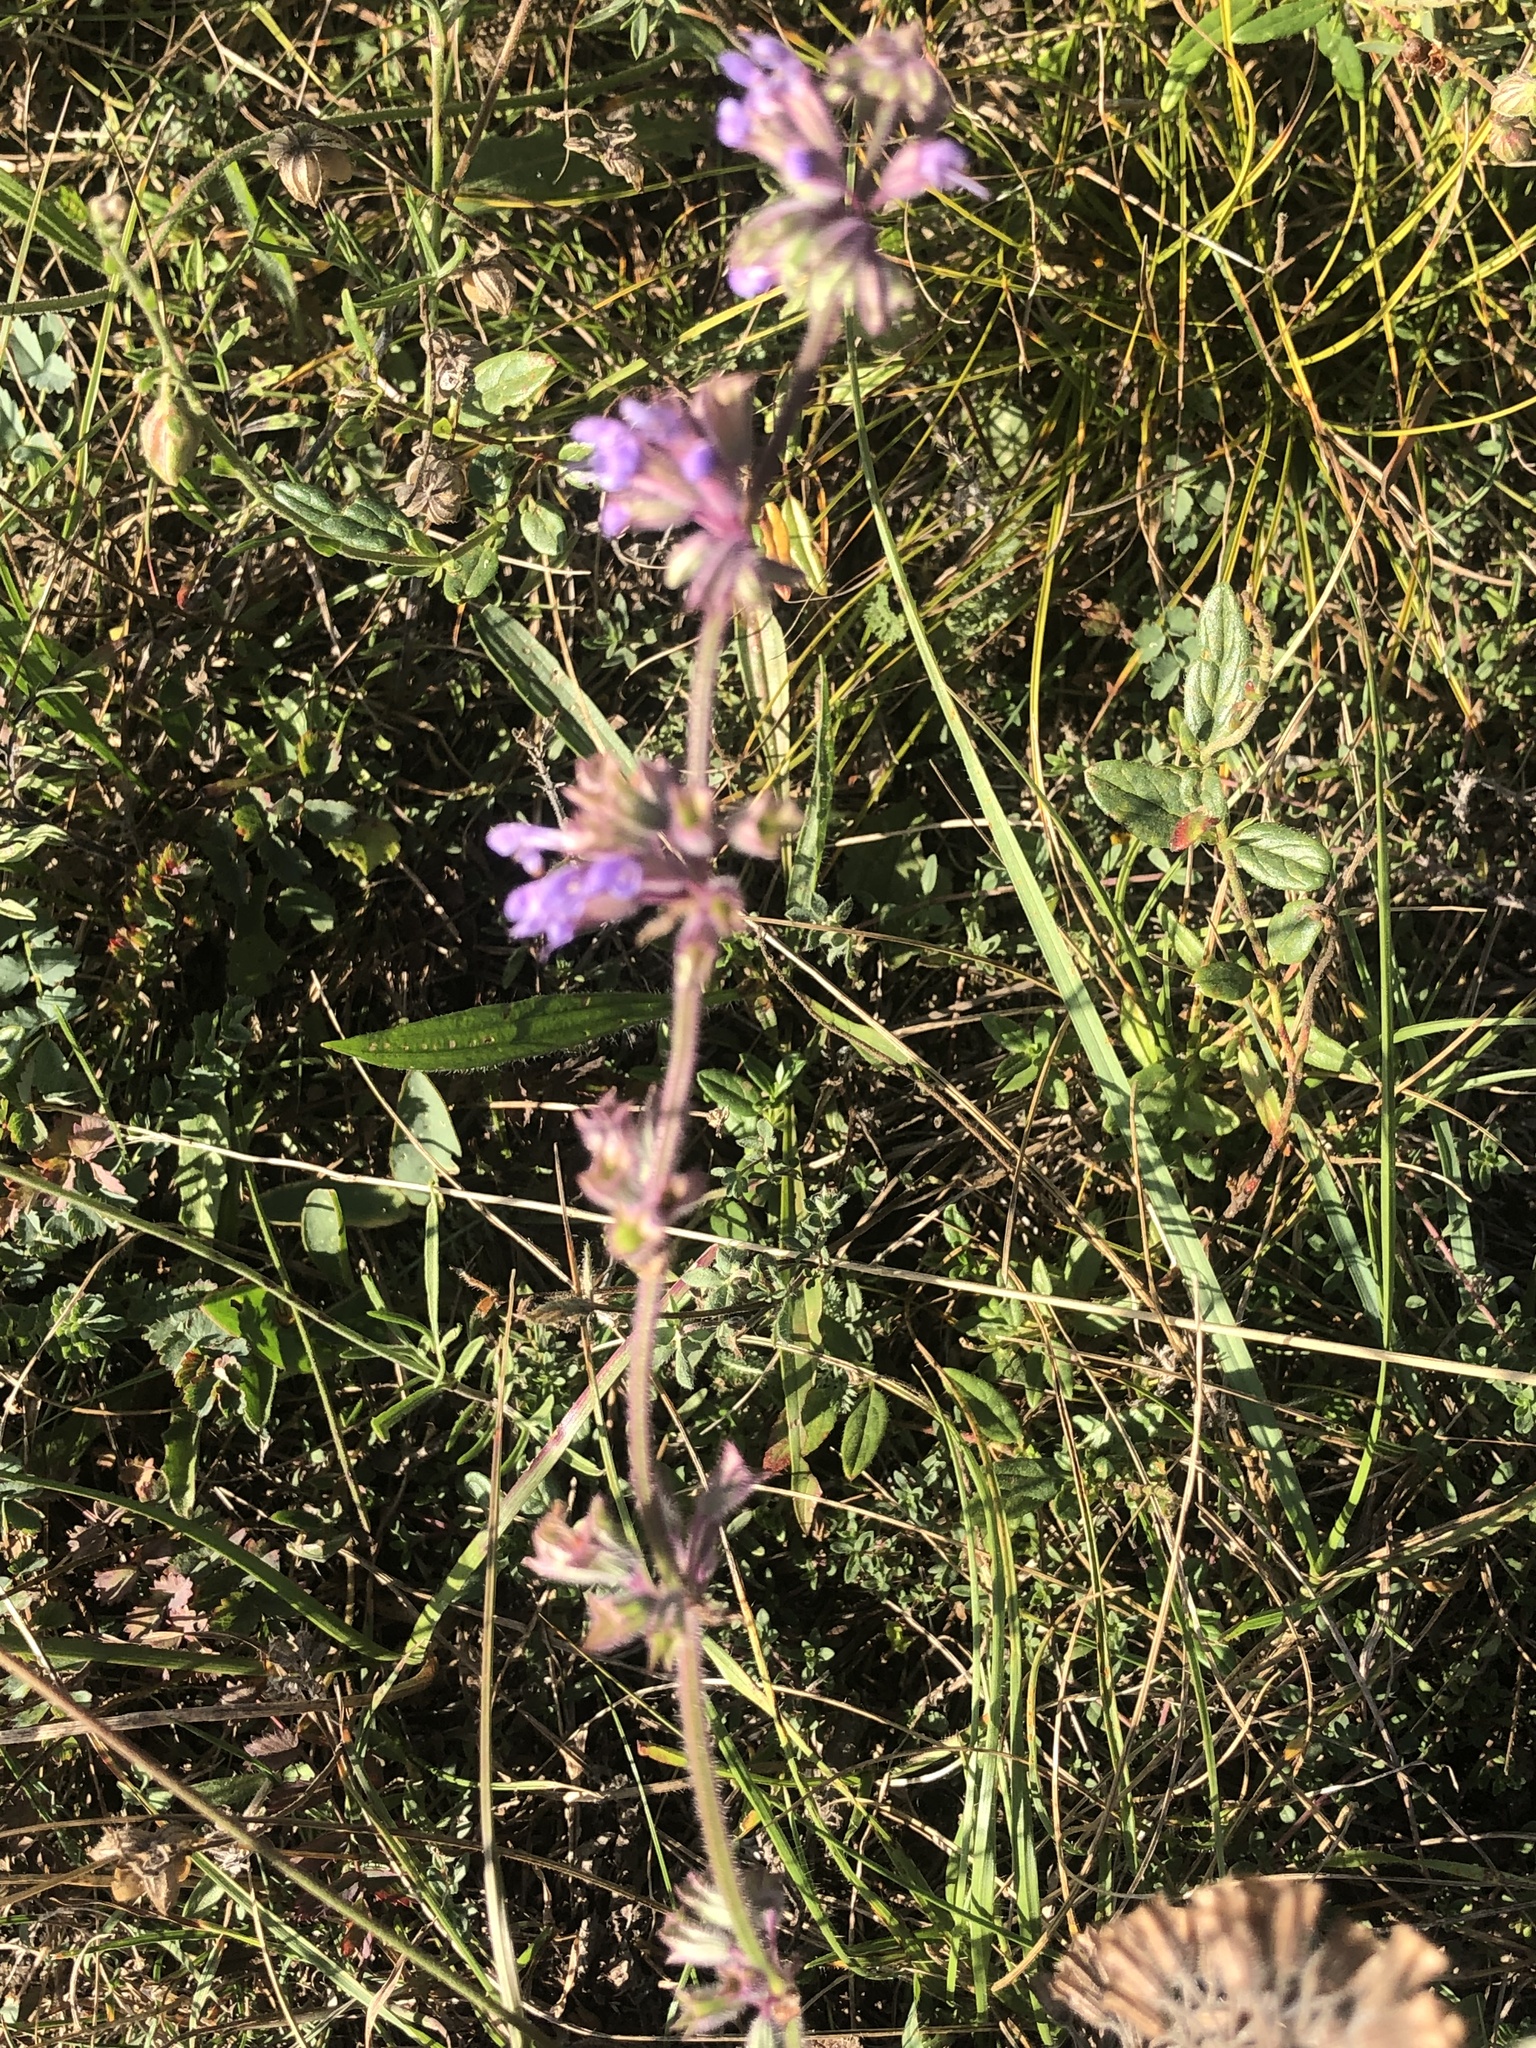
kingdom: Plantae
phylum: Tracheophyta
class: Magnoliopsida
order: Lamiales
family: Lamiaceae
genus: Salvia
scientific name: Salvia verticillata
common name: Whorled clary
